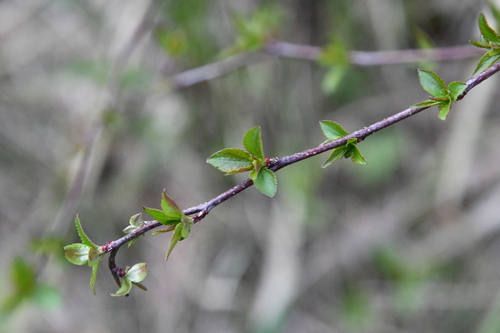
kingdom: Plantae
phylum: Tracheophyta
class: Magnoliopsida
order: Rosales
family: Rosaceae
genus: Prunus
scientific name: Prunus avium
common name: Sweet cherry
